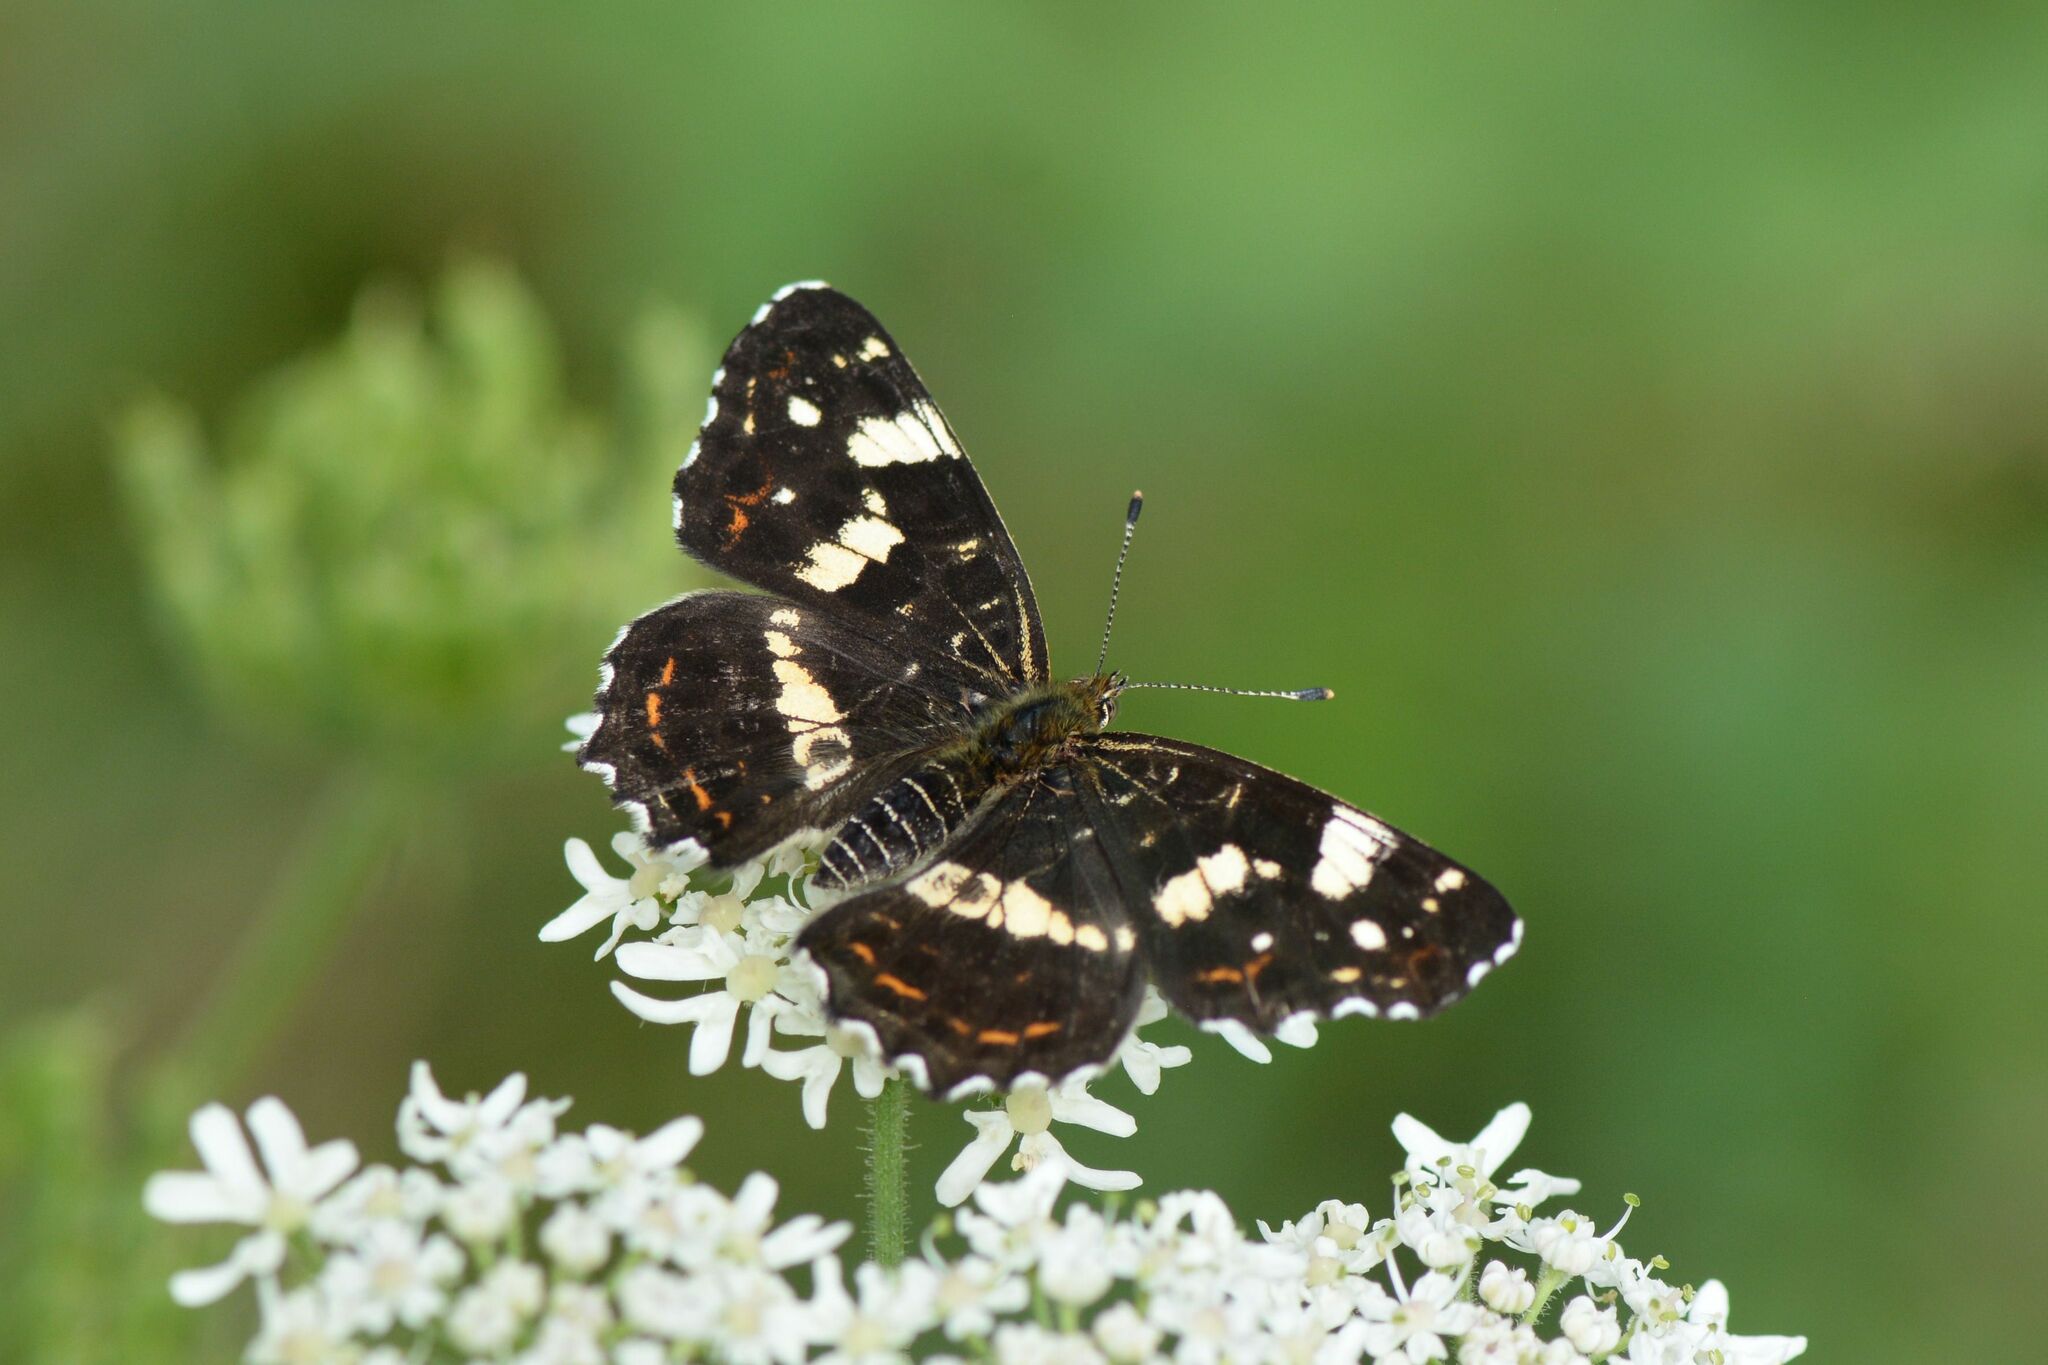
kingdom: Animalia
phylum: Arthropoda
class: Insecta
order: Lepidoptera
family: Nymphalidae
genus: Araschnia
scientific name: Araschnia levana
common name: Map butterfly
